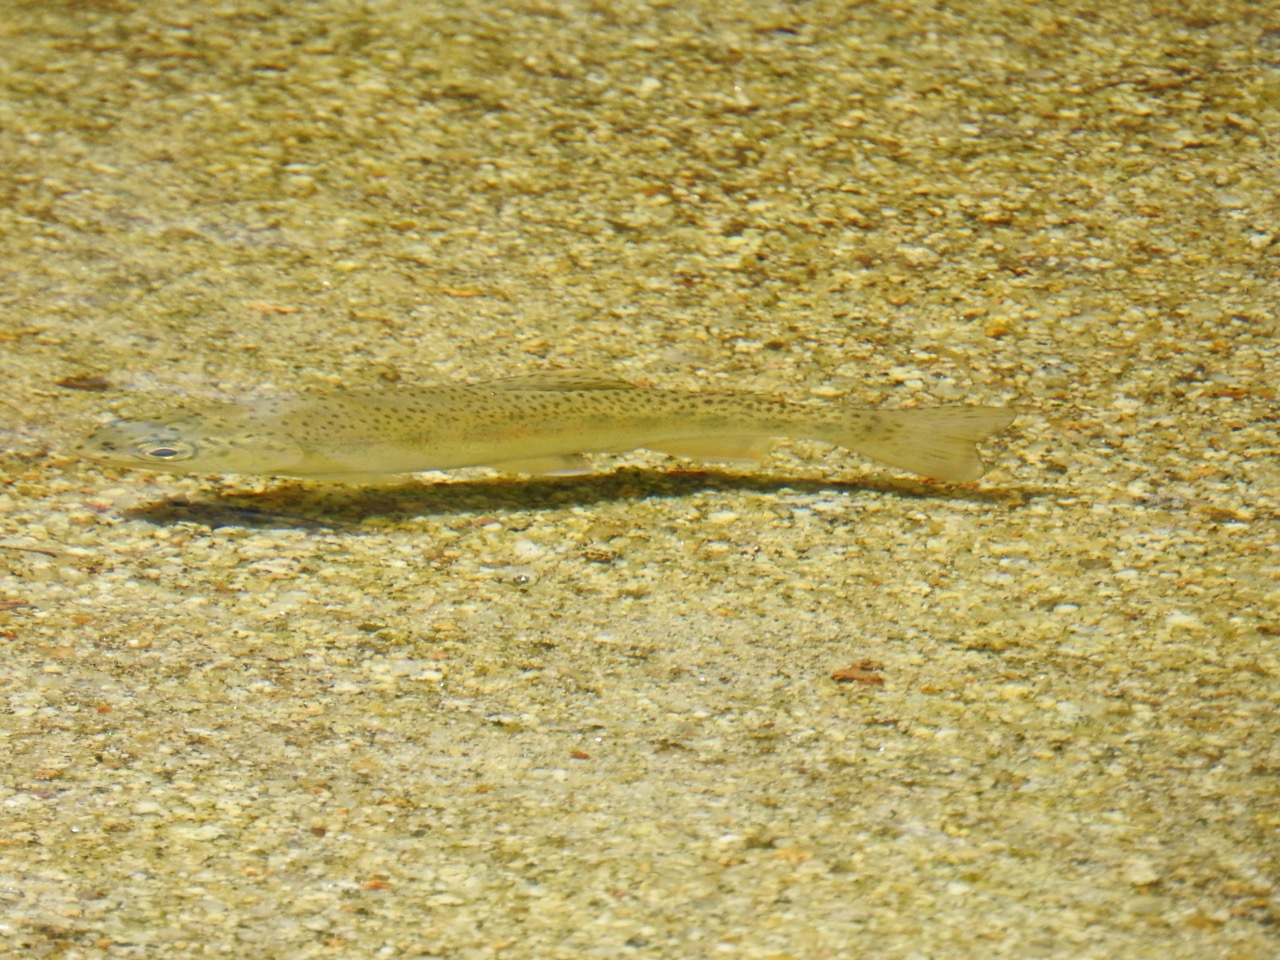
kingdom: Animalia
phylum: Chordata
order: Salmoniformes
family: Salmonidae
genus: Oncorhynchus
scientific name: Oncorhynchus
